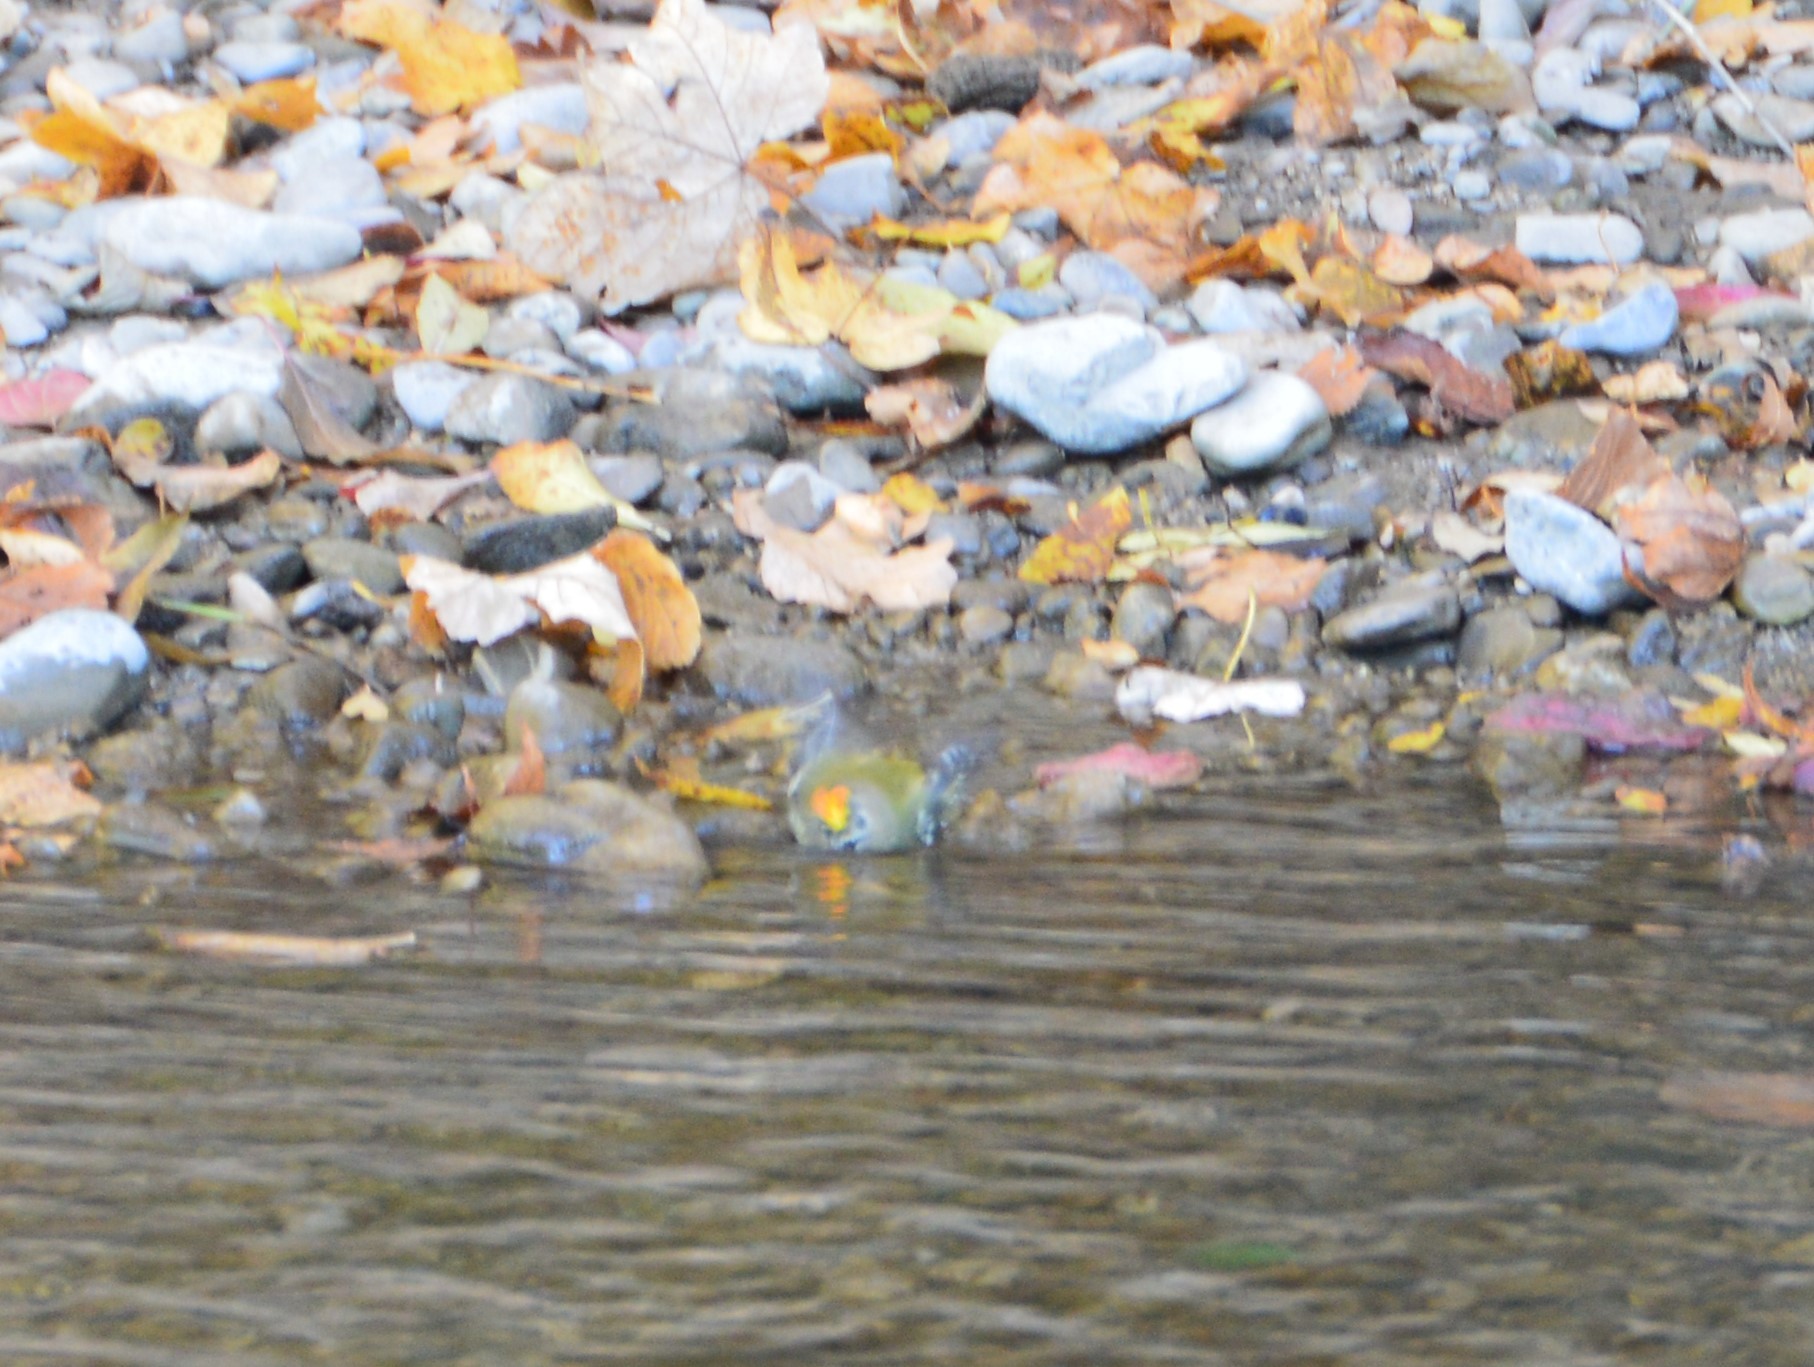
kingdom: Animalia
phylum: Chordata
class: Aves
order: Passeriformes
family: Regulidae
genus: Regulus
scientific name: Regulus regulus
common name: Goldcrest
